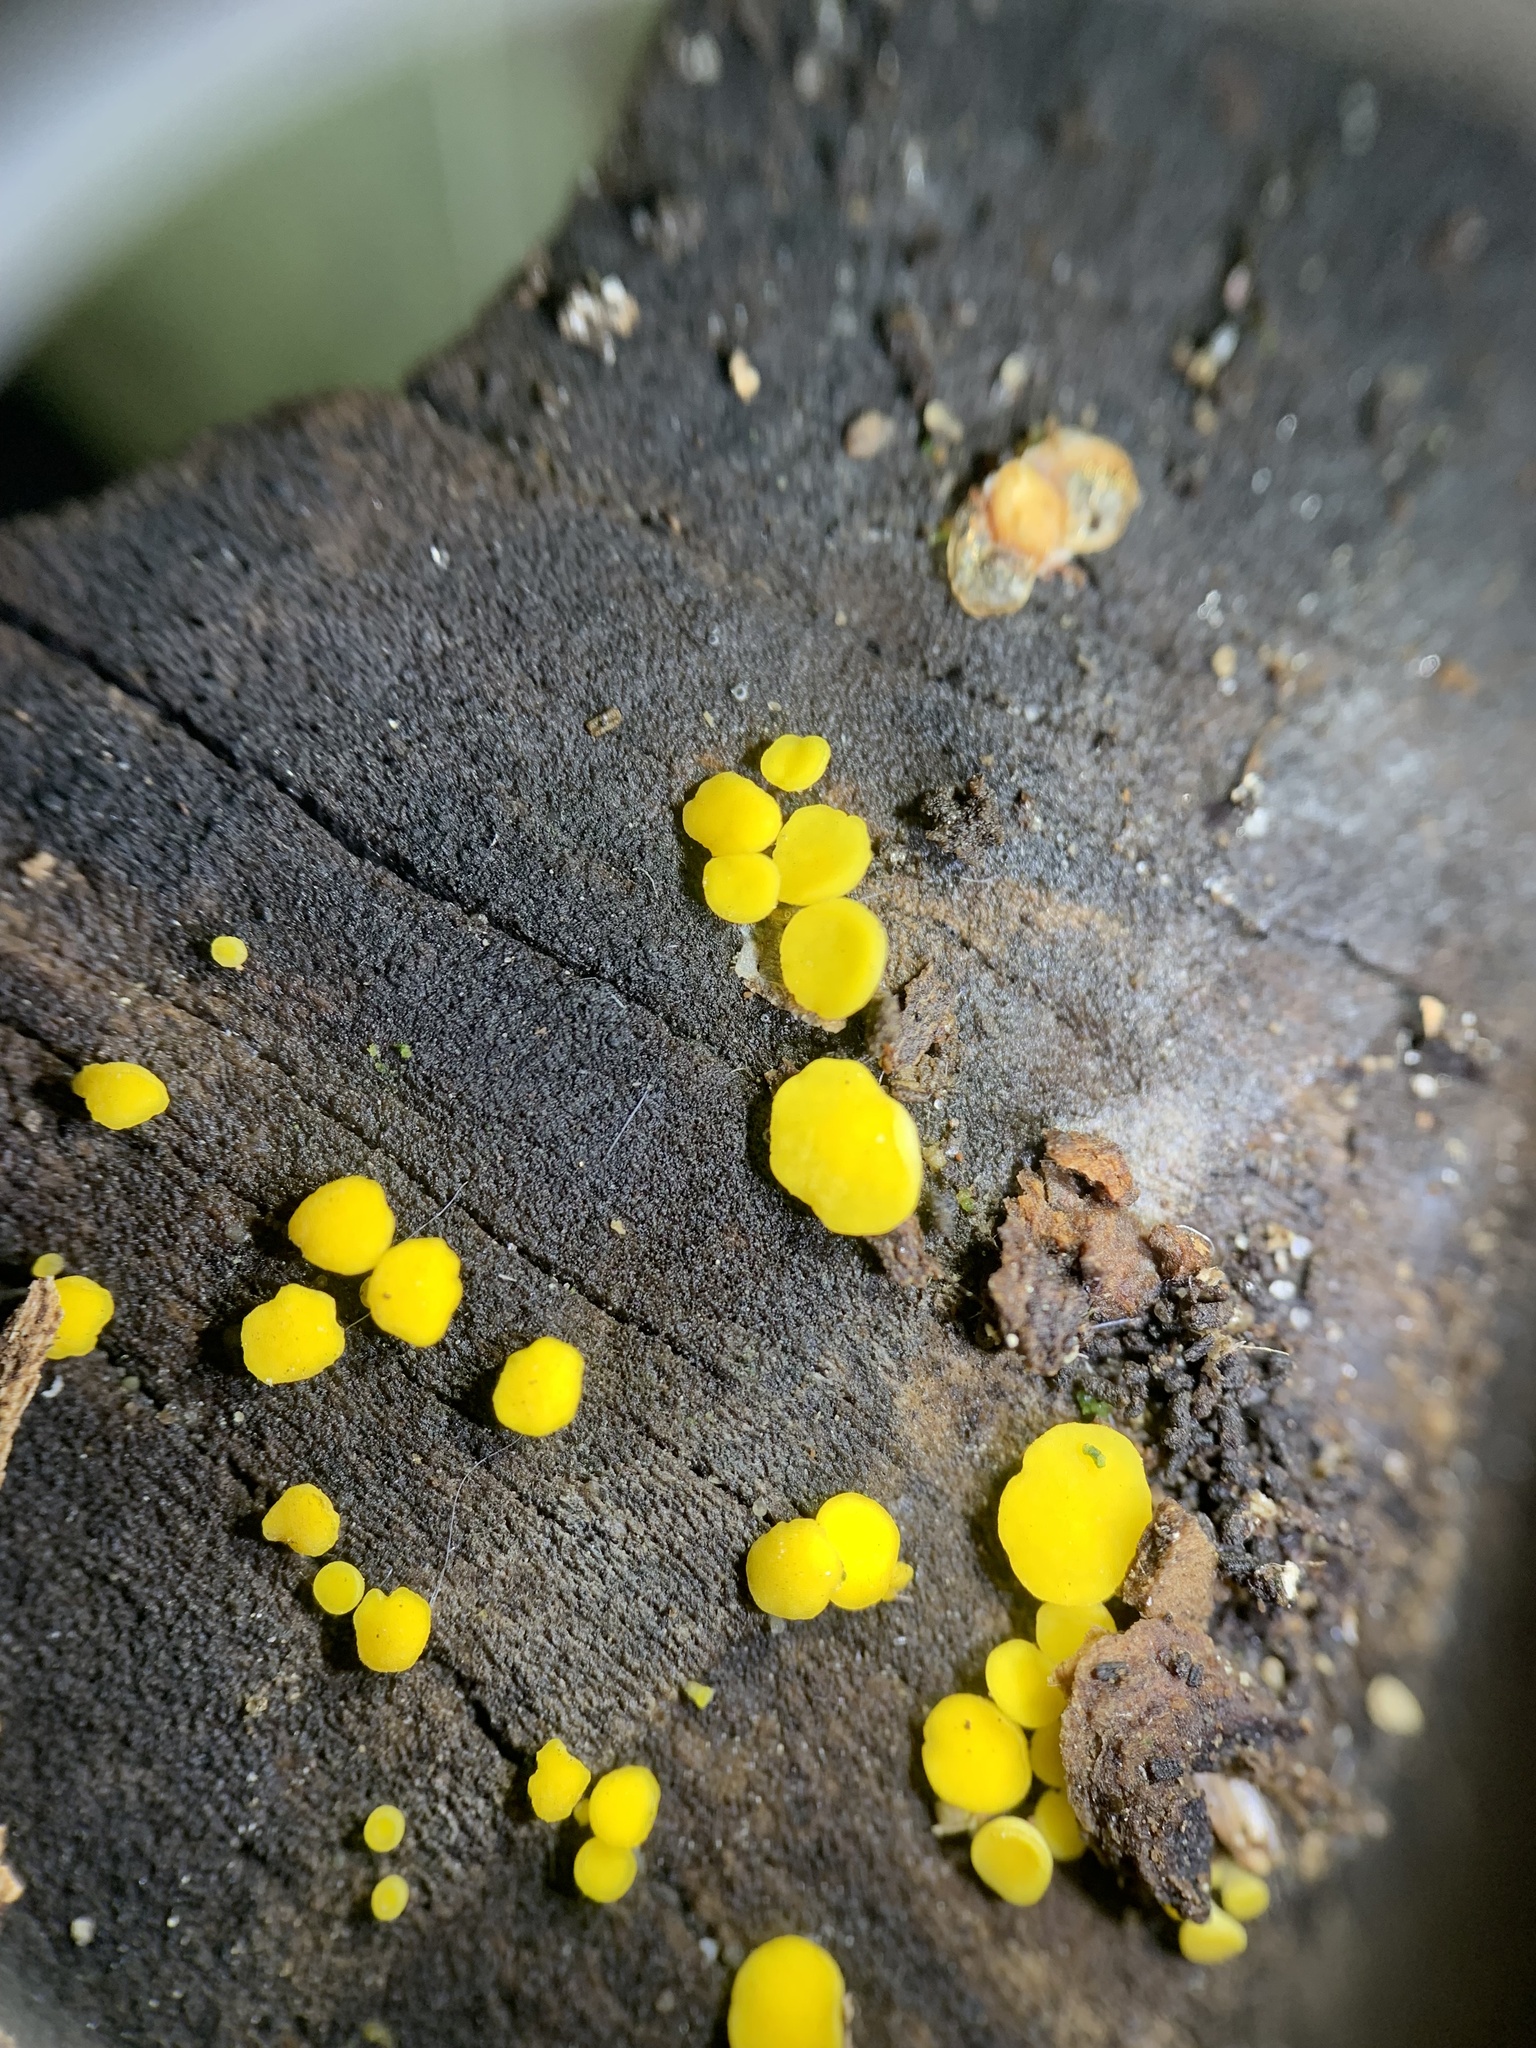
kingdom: Fungi
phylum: Ascomycota
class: Leotiomycetes
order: Helotiales
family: Pezizellaceae
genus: Calycina
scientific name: Calycina citrina
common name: Yellow fairy cups
